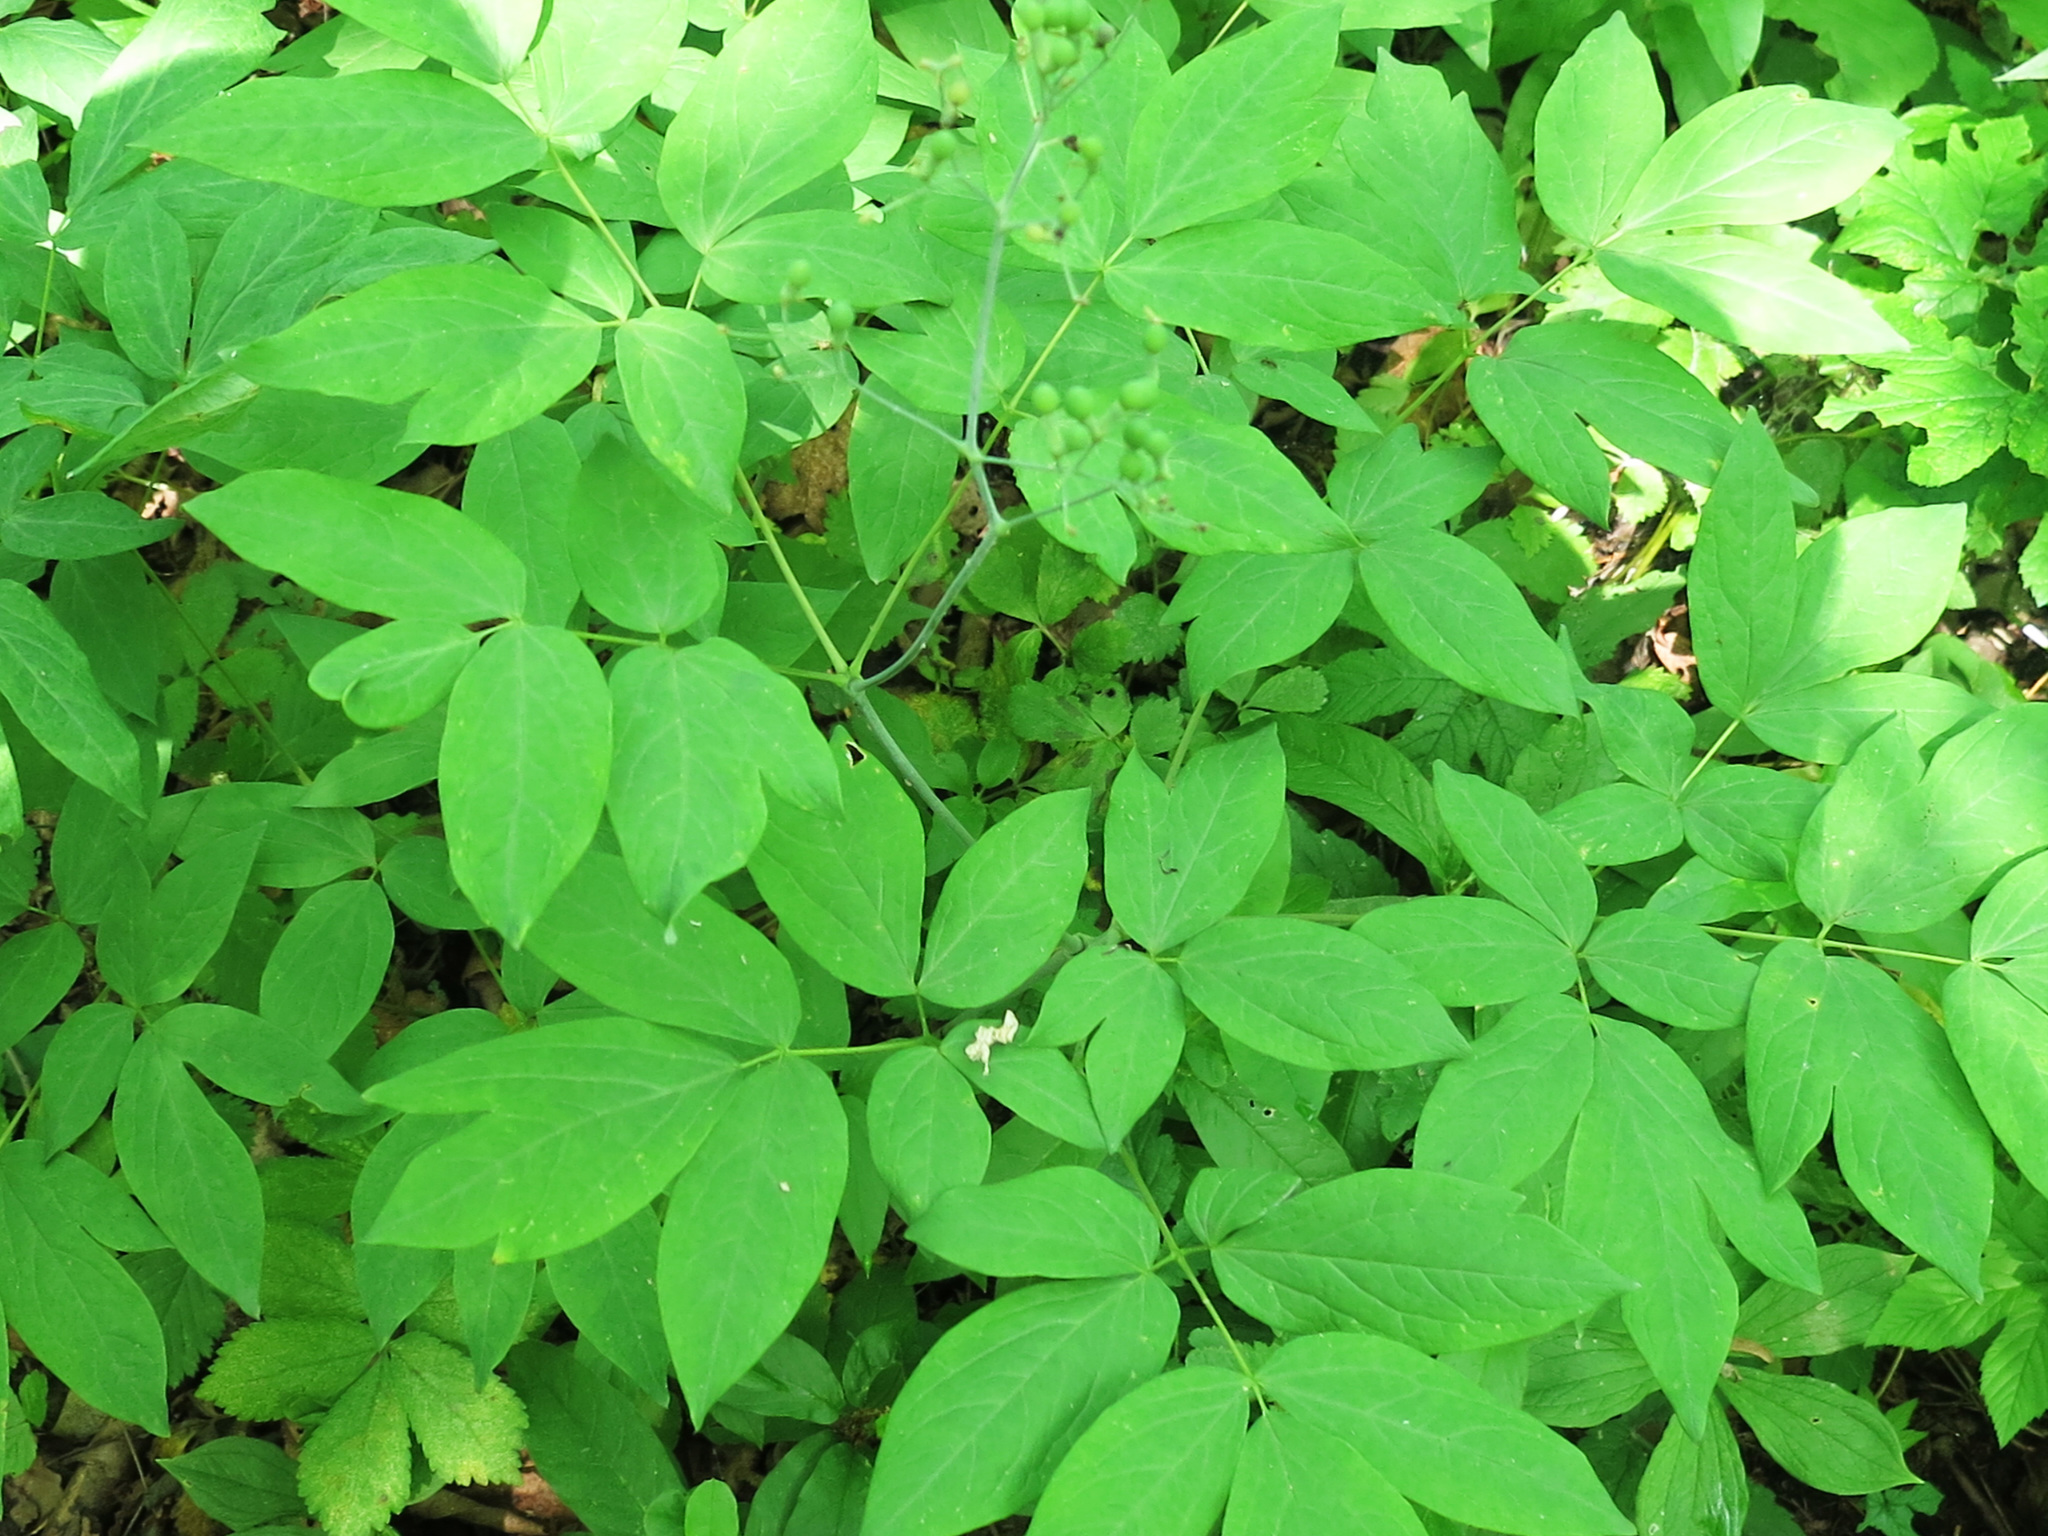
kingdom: Plantae
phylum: Tracheophyta
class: Magnoliopsida
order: Ranunculales
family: Berberidaceae
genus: Caulophyllum
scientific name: Caulophyllum robustum
